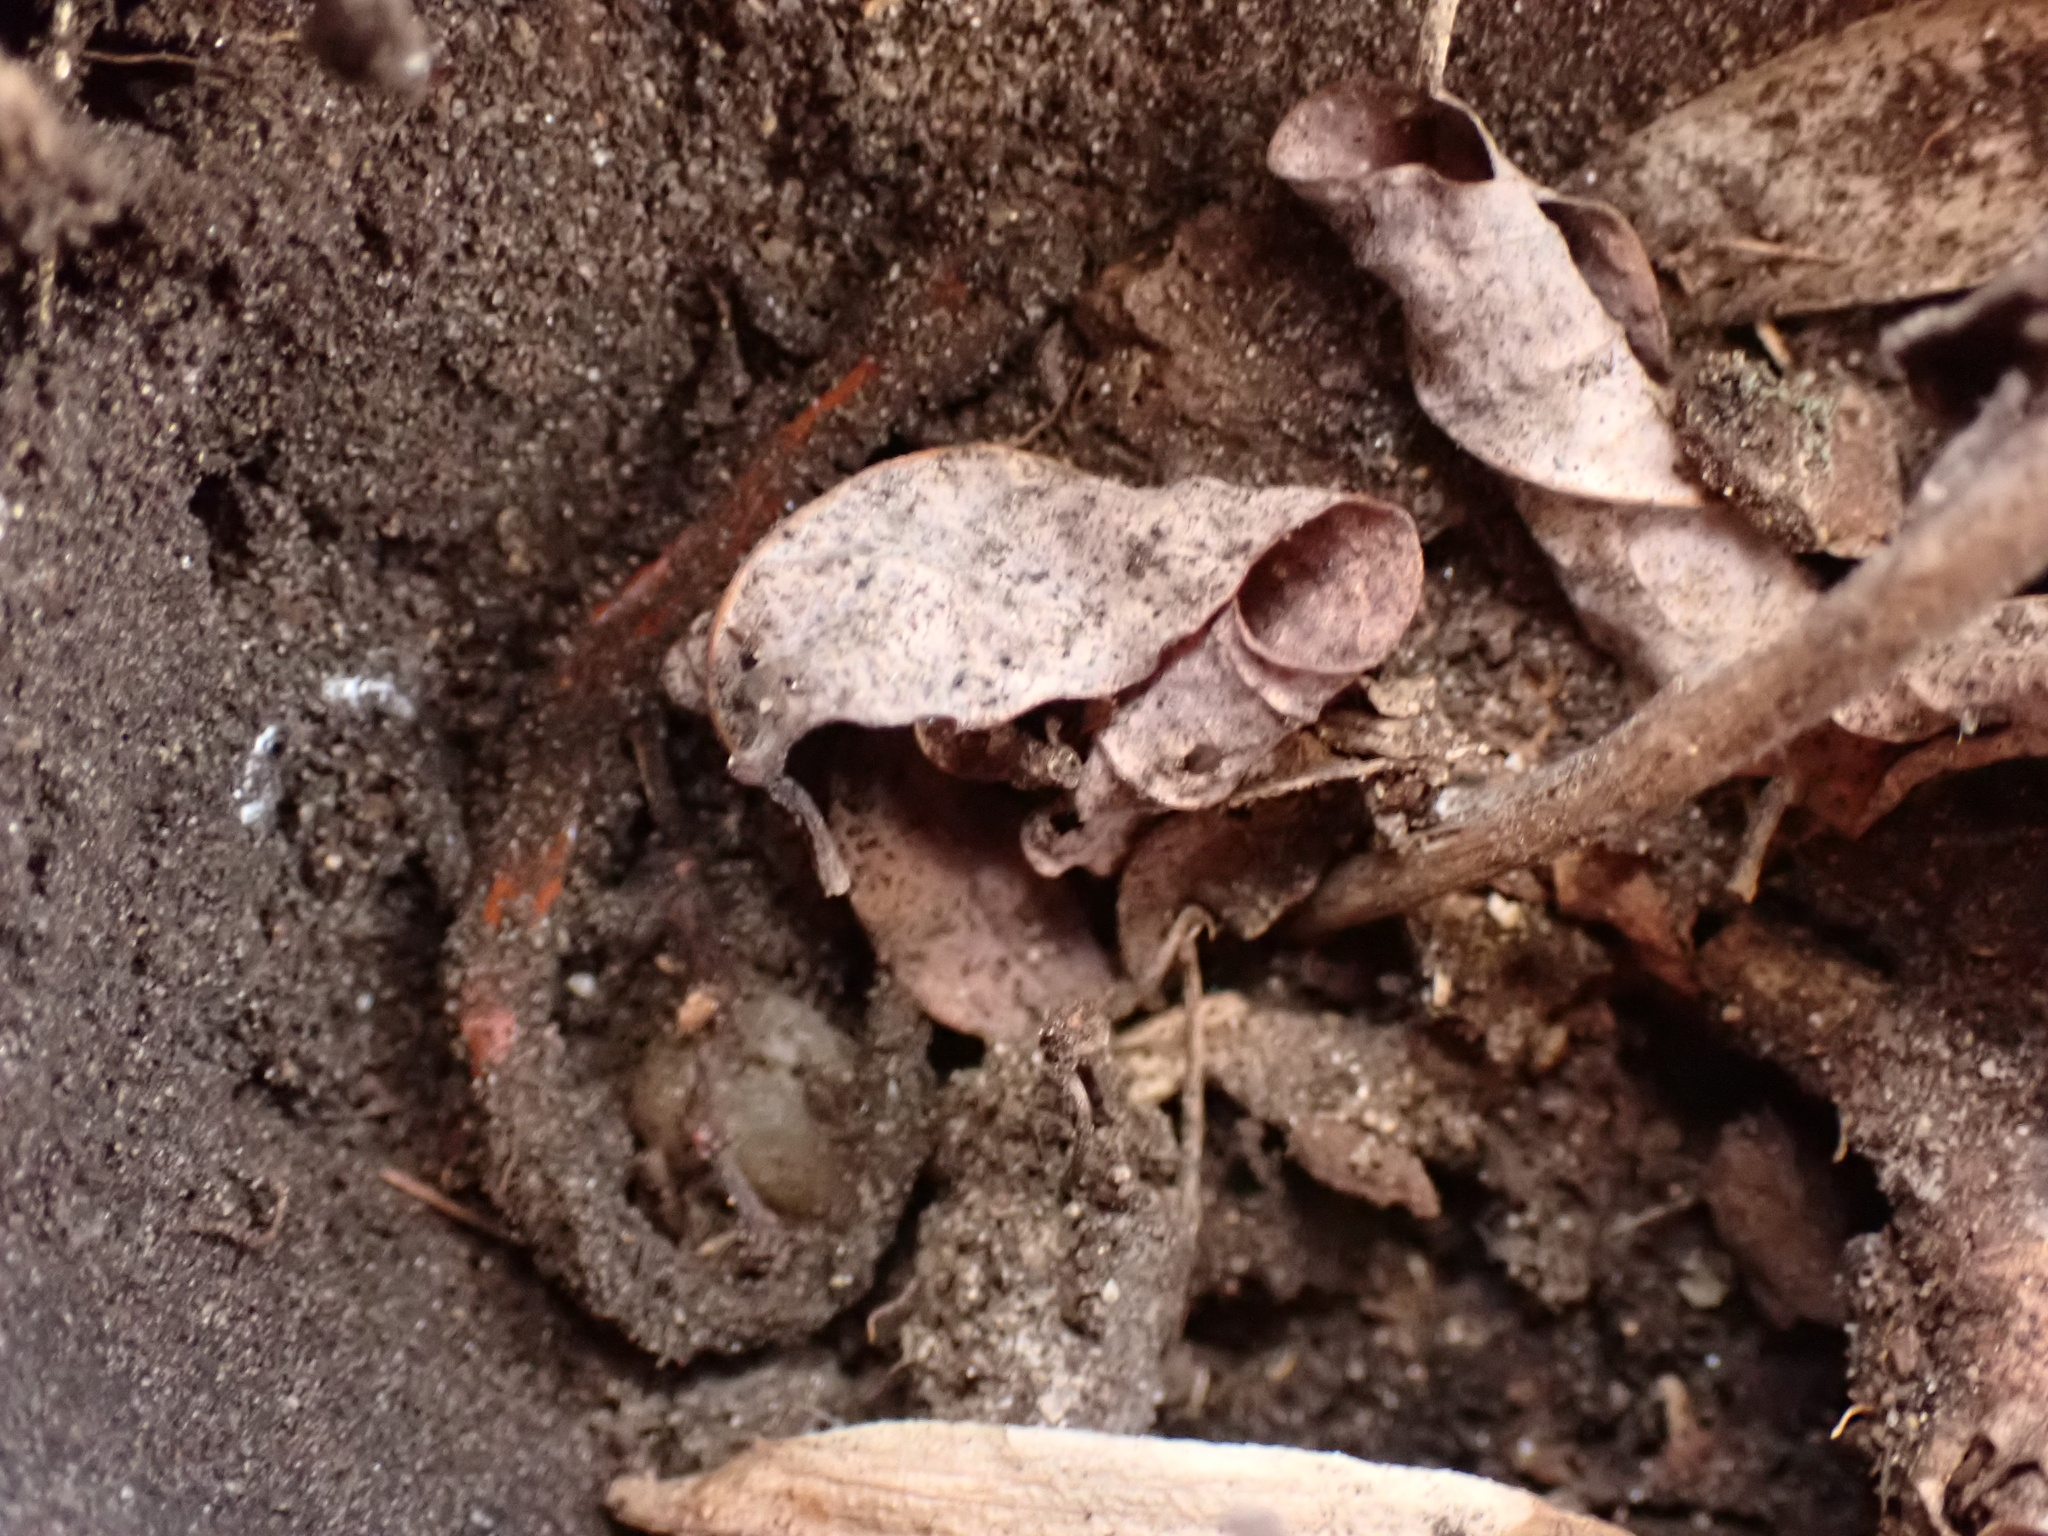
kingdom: Animalia
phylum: Chordata
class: Amphibia
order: Caudata
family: Plethodontidae
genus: Plethodon
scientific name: Plethodon cinereus
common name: Redback salamander
